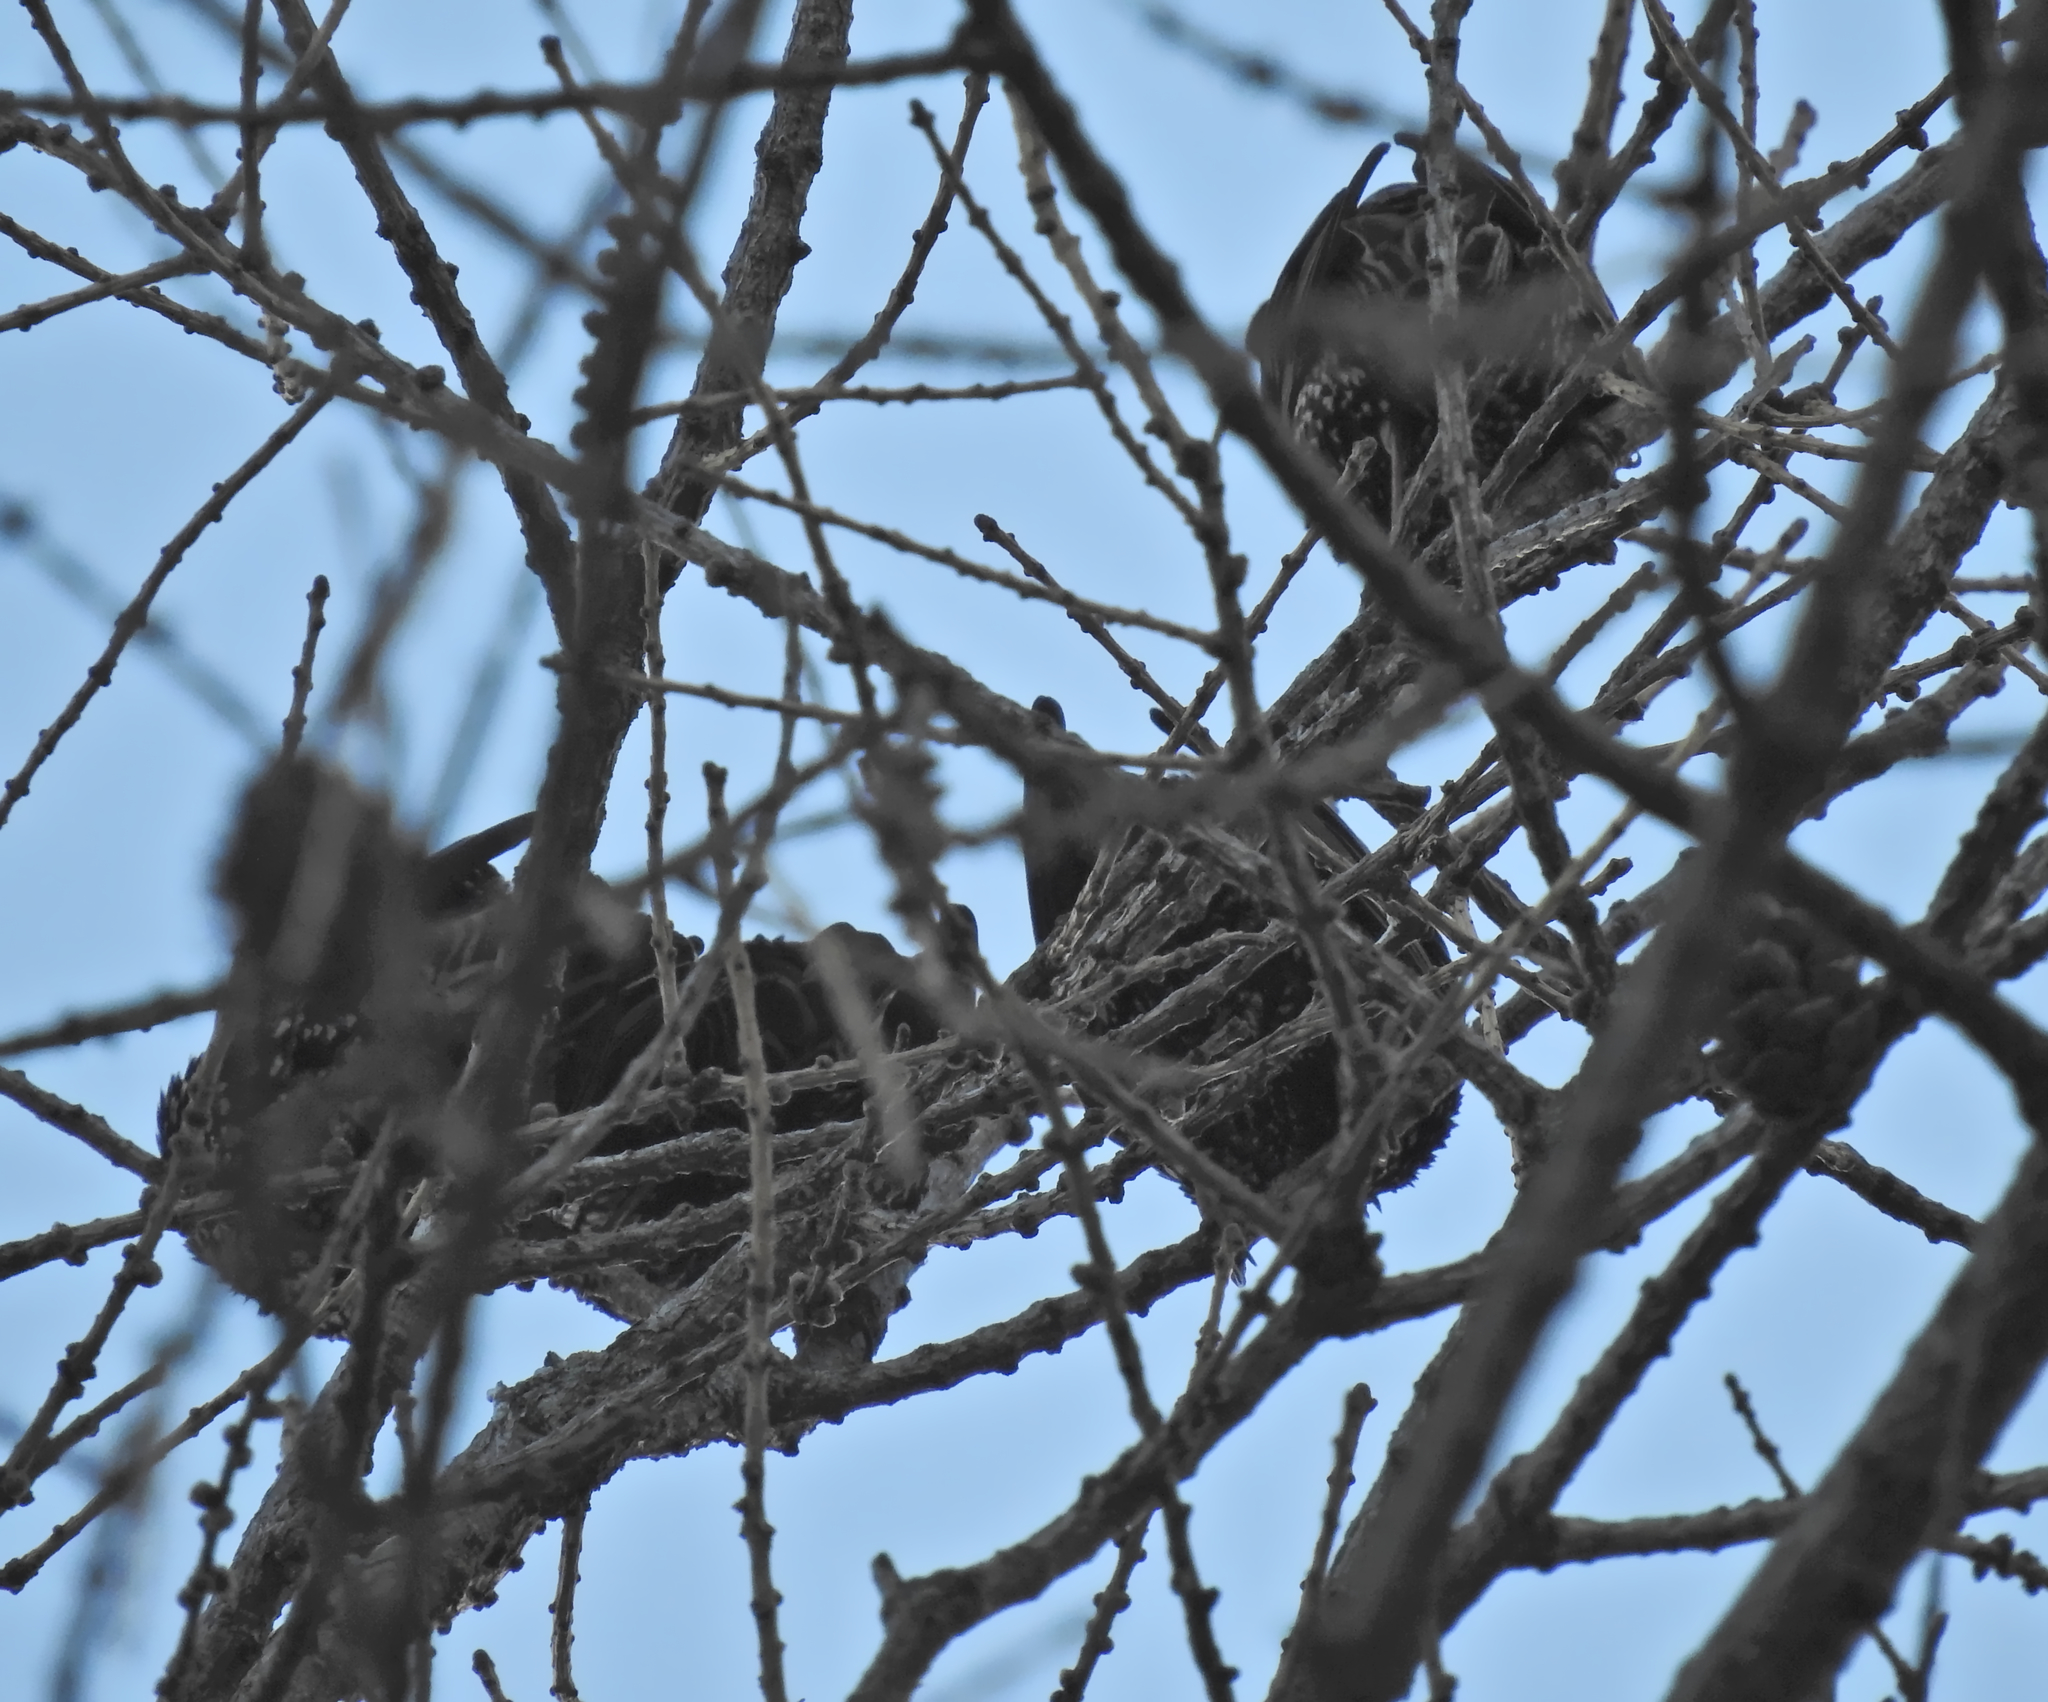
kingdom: Animalia
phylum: Chordata
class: Aves
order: Passeriformes
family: Sturnidae
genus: Sturnus
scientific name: Sturnus vulgaris
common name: Common starling
